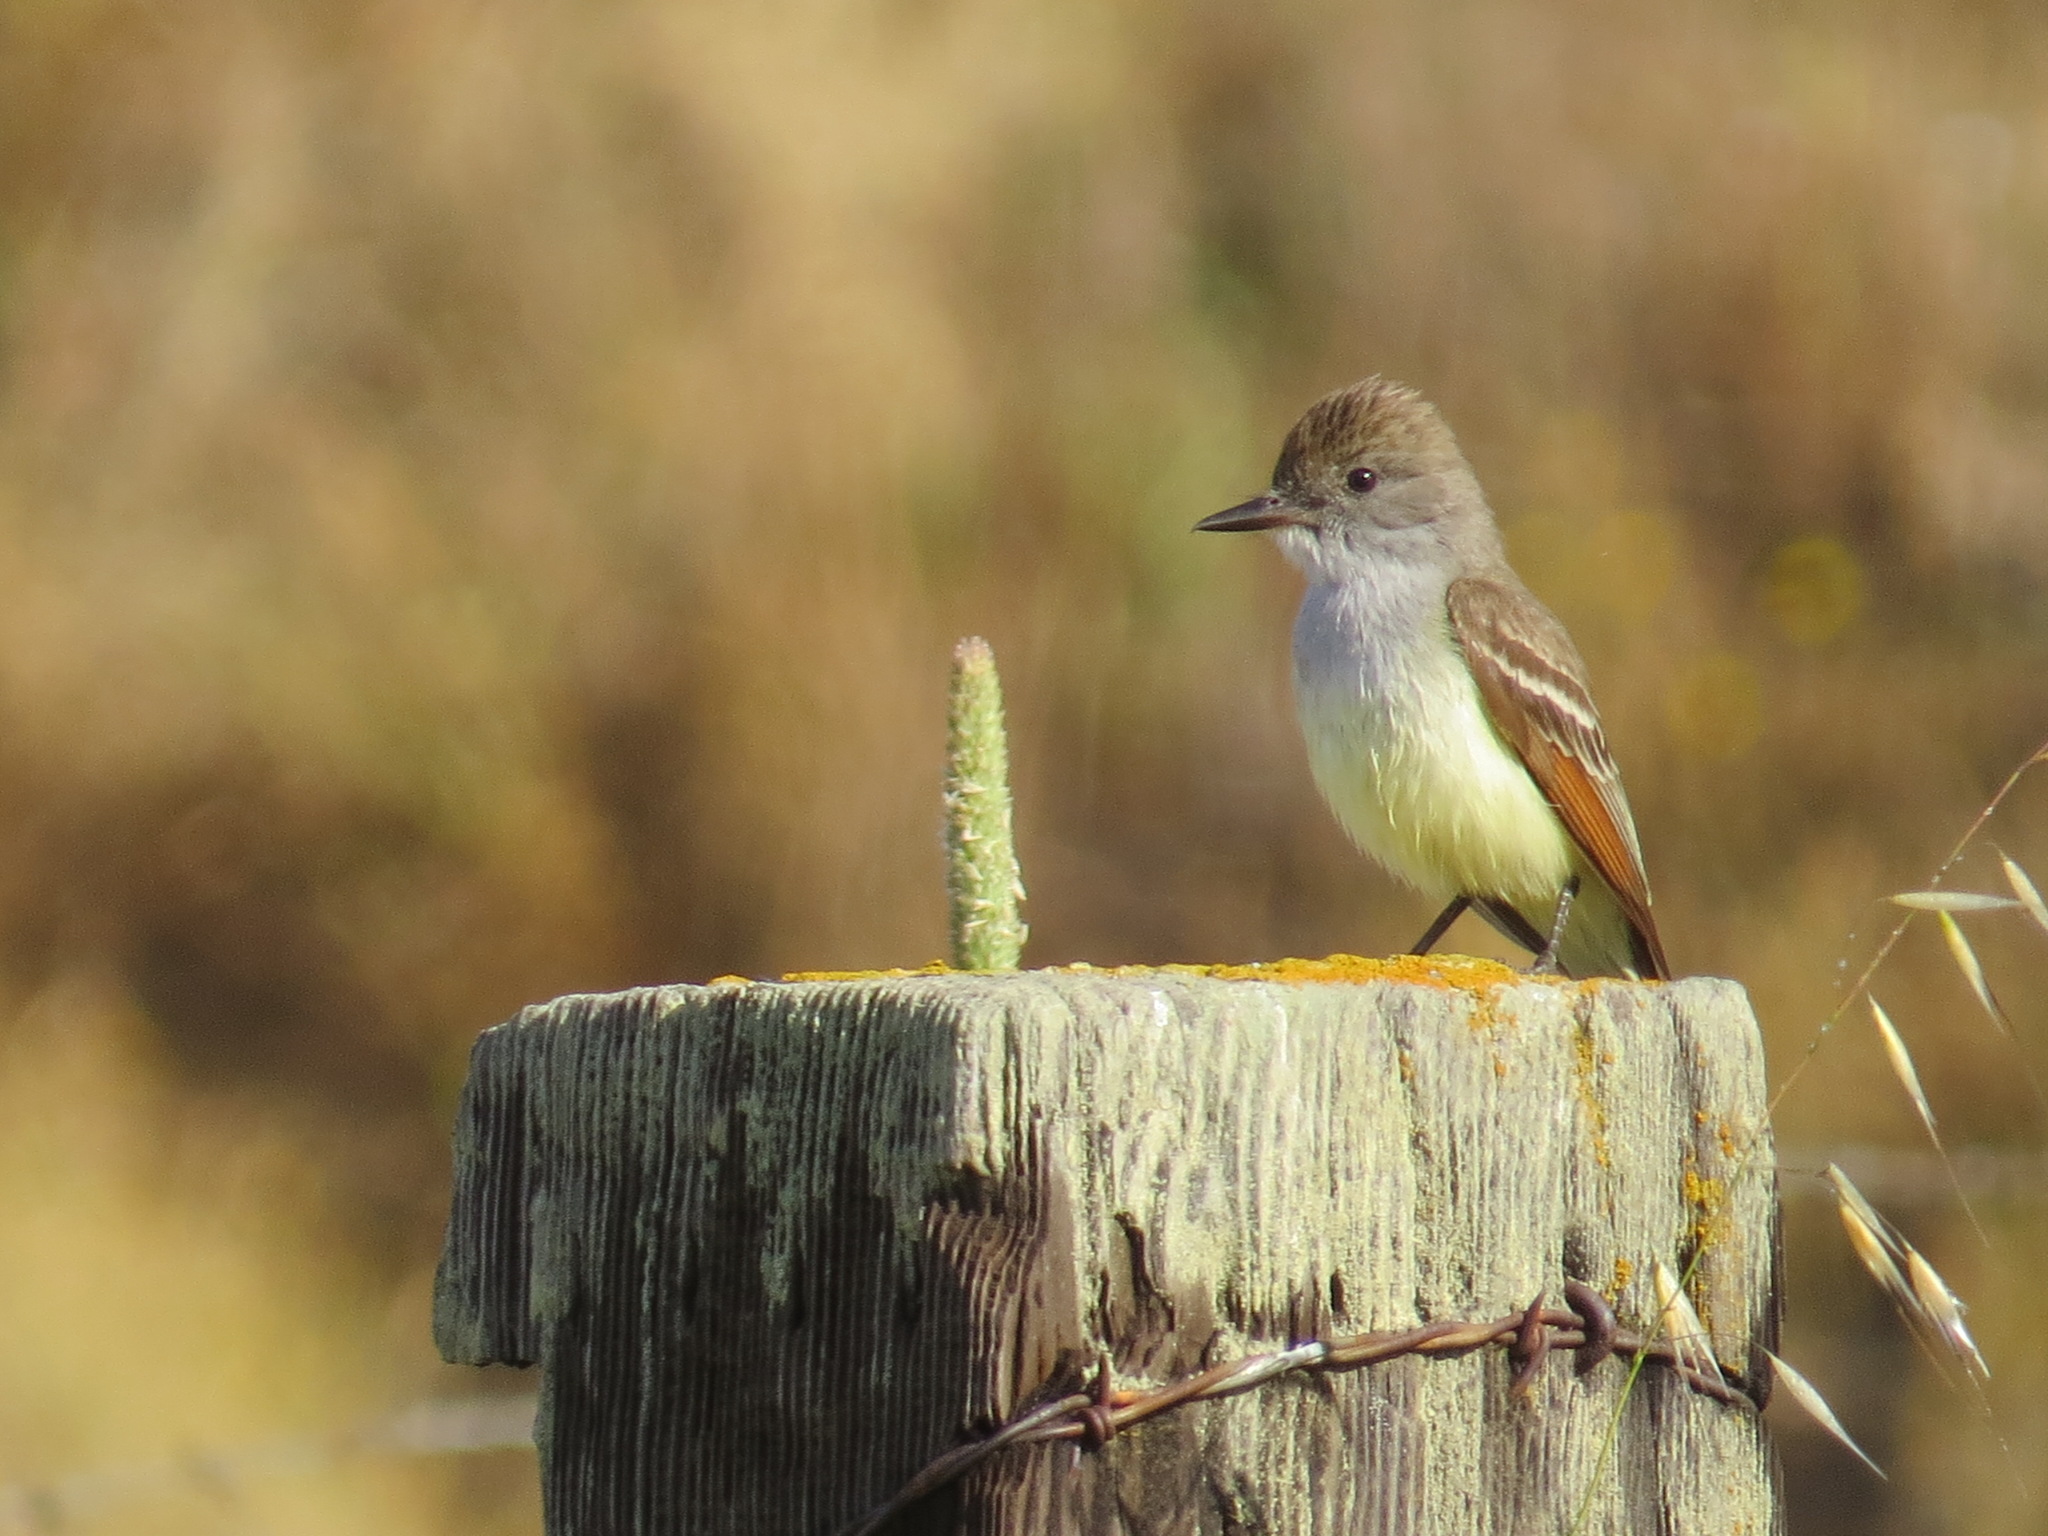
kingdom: Animalia
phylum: Chordata
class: Aves
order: Passeriformes
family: Tyrannidae
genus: Myiarchus
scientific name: Myiarchus cinerascens
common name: Ash-throated flycatcher
